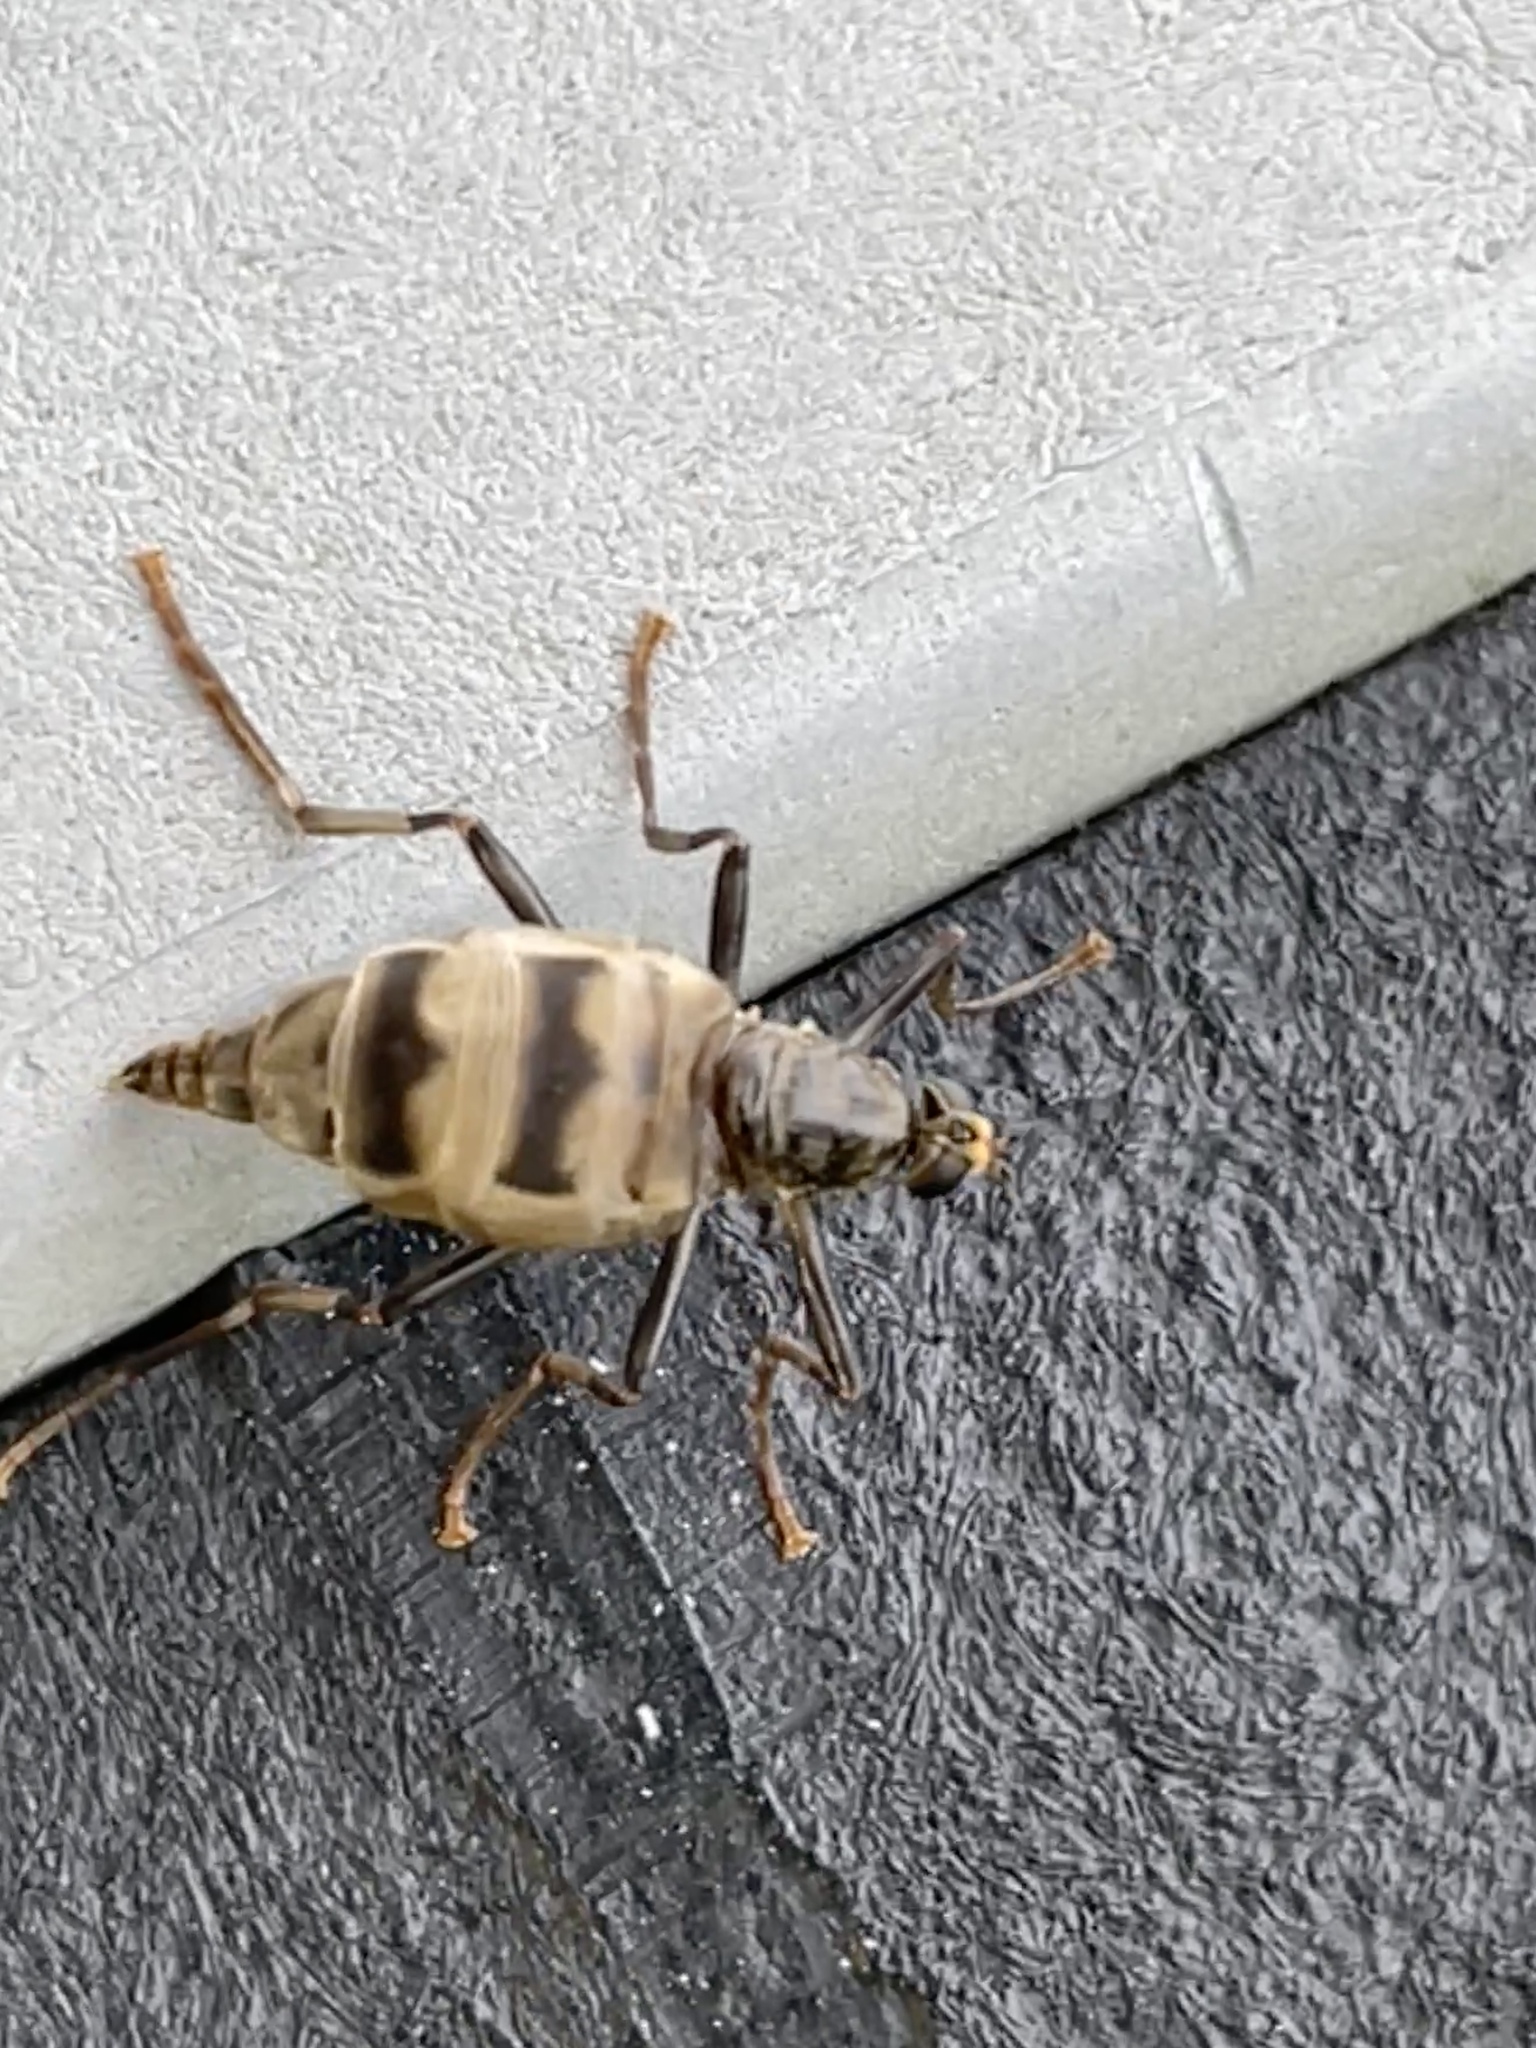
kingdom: Animalia
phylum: Arthropoda
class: Insecta
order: Diptera
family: Stratiomyidae
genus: Boreoides
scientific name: Boreoides subulatus
